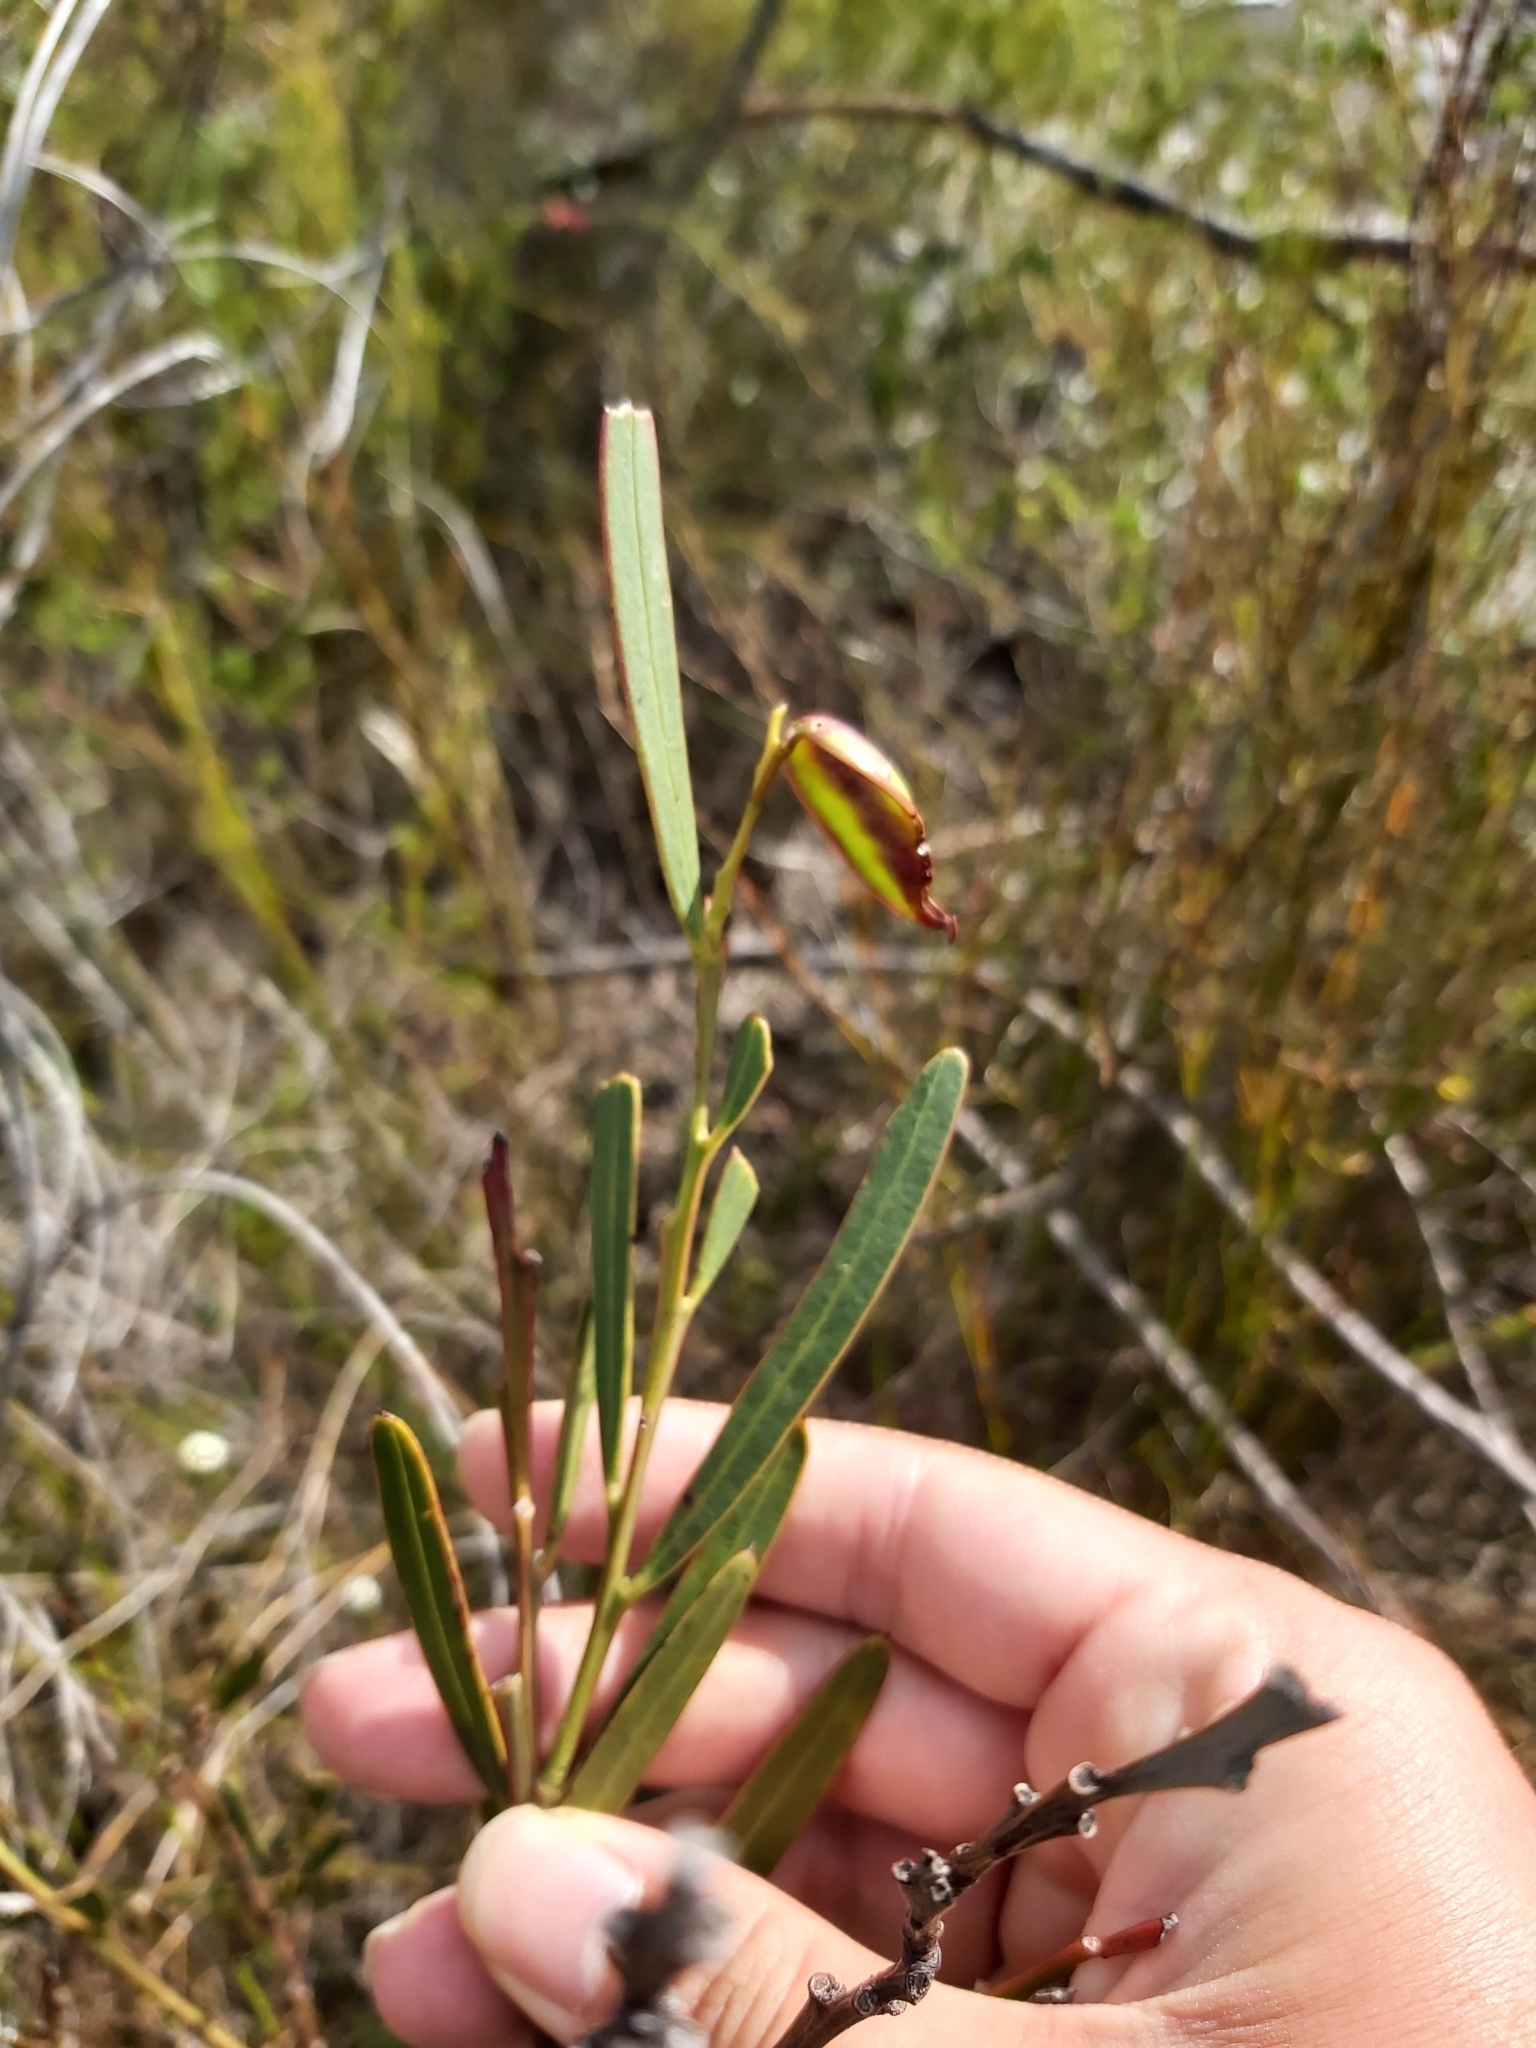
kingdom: Plantae
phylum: Tracheophyta
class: Magnoliopsida
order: Fabales
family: Fabaceae
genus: Acacia
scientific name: Acacia suaveolens
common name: Sweet acacia
